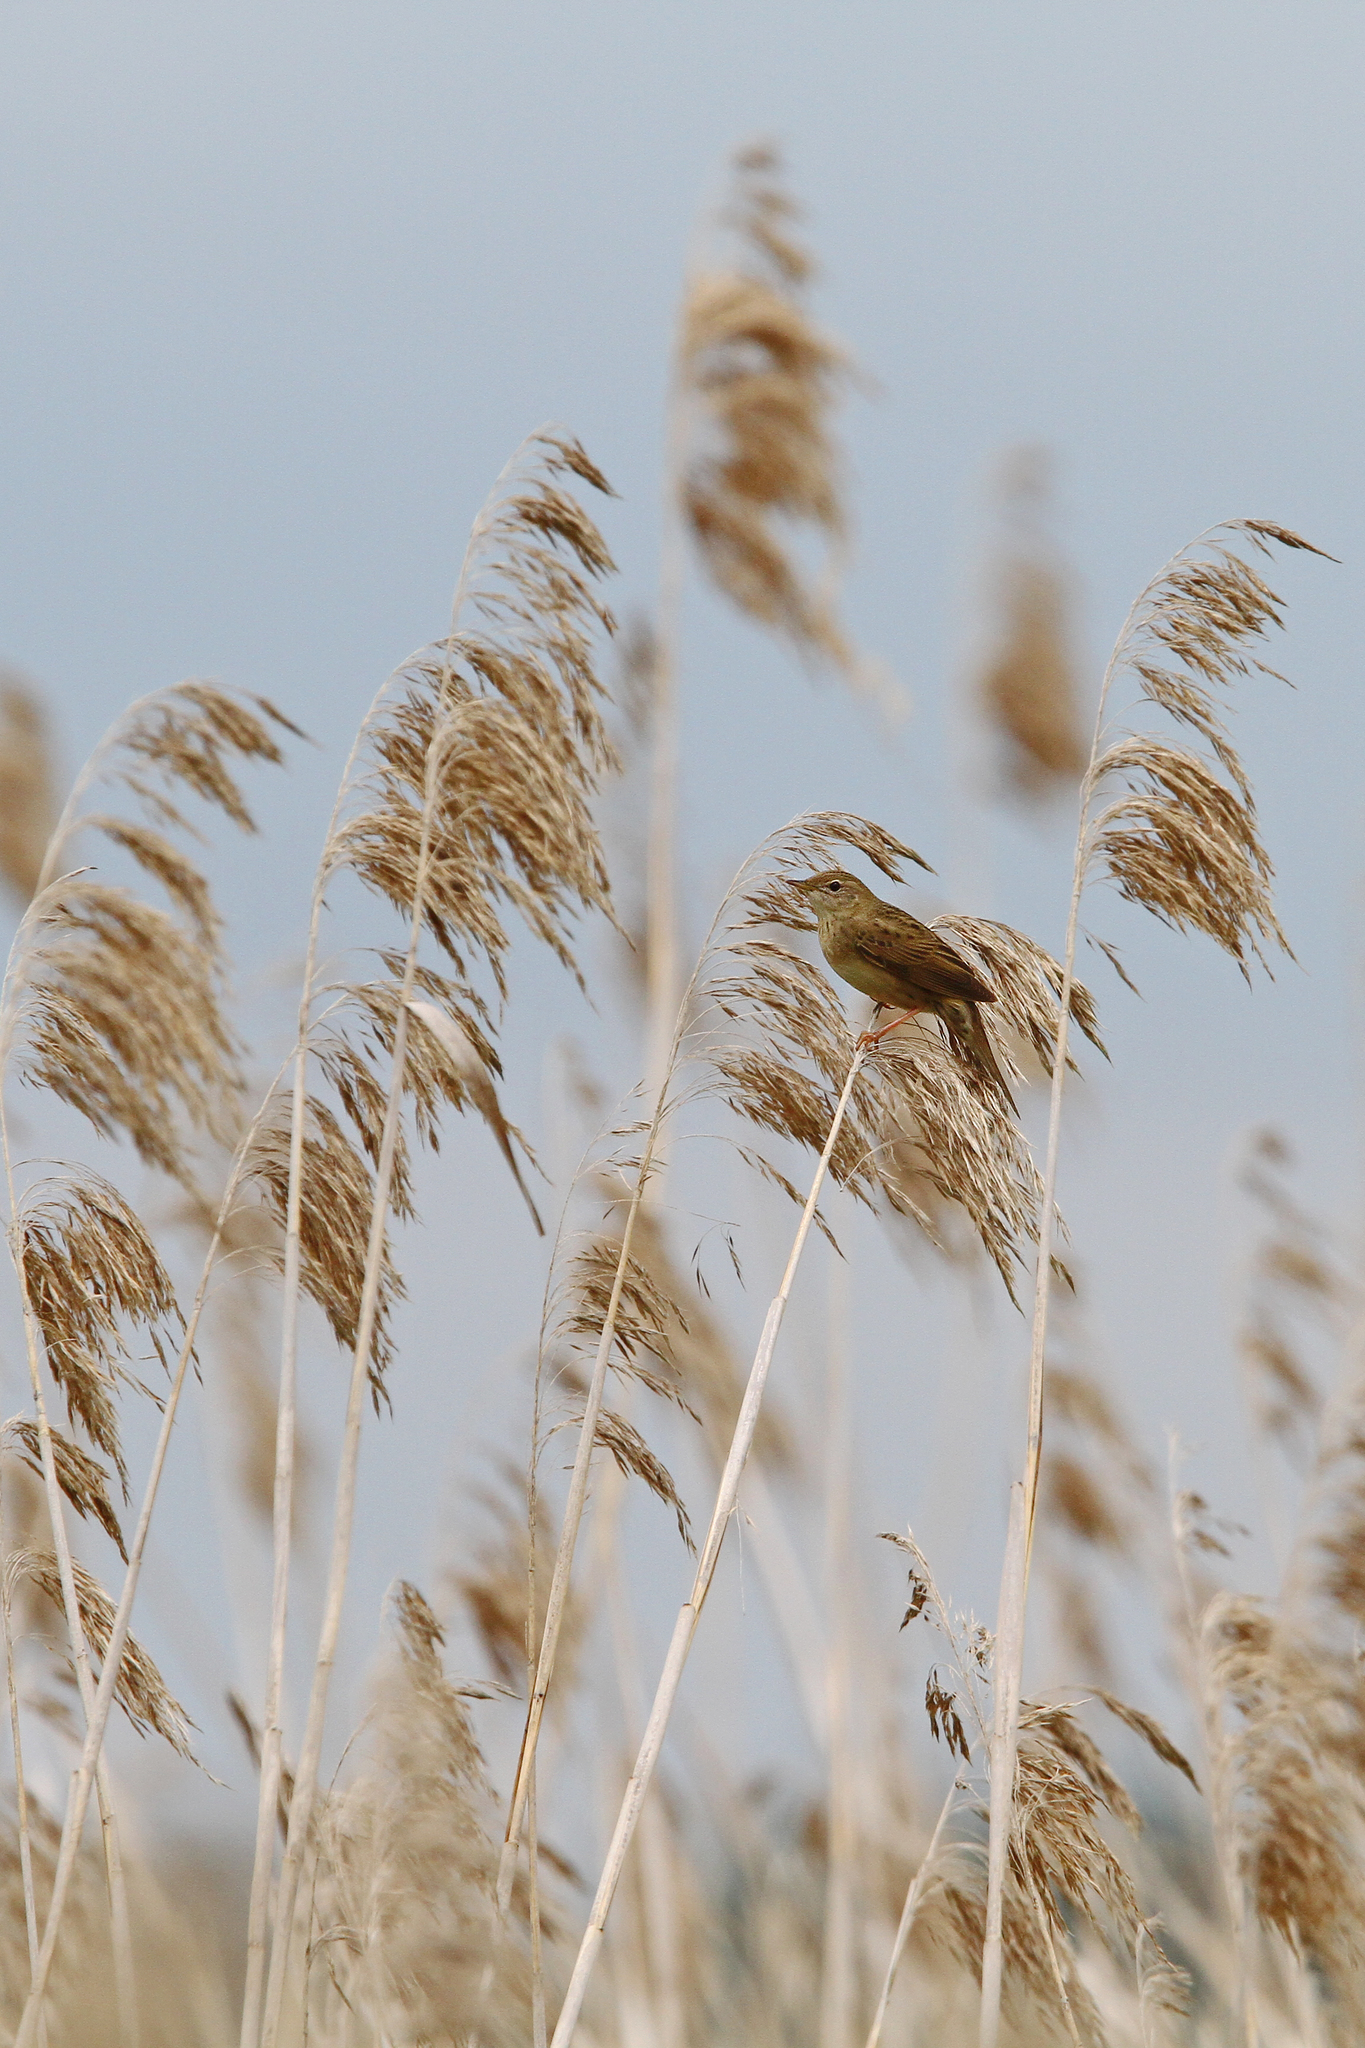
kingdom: Animalia
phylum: Chordata
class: Aves
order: Passeriformes
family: Locustellidae
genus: Locustella
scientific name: Locustella naevia
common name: Common grasshopper warbler
